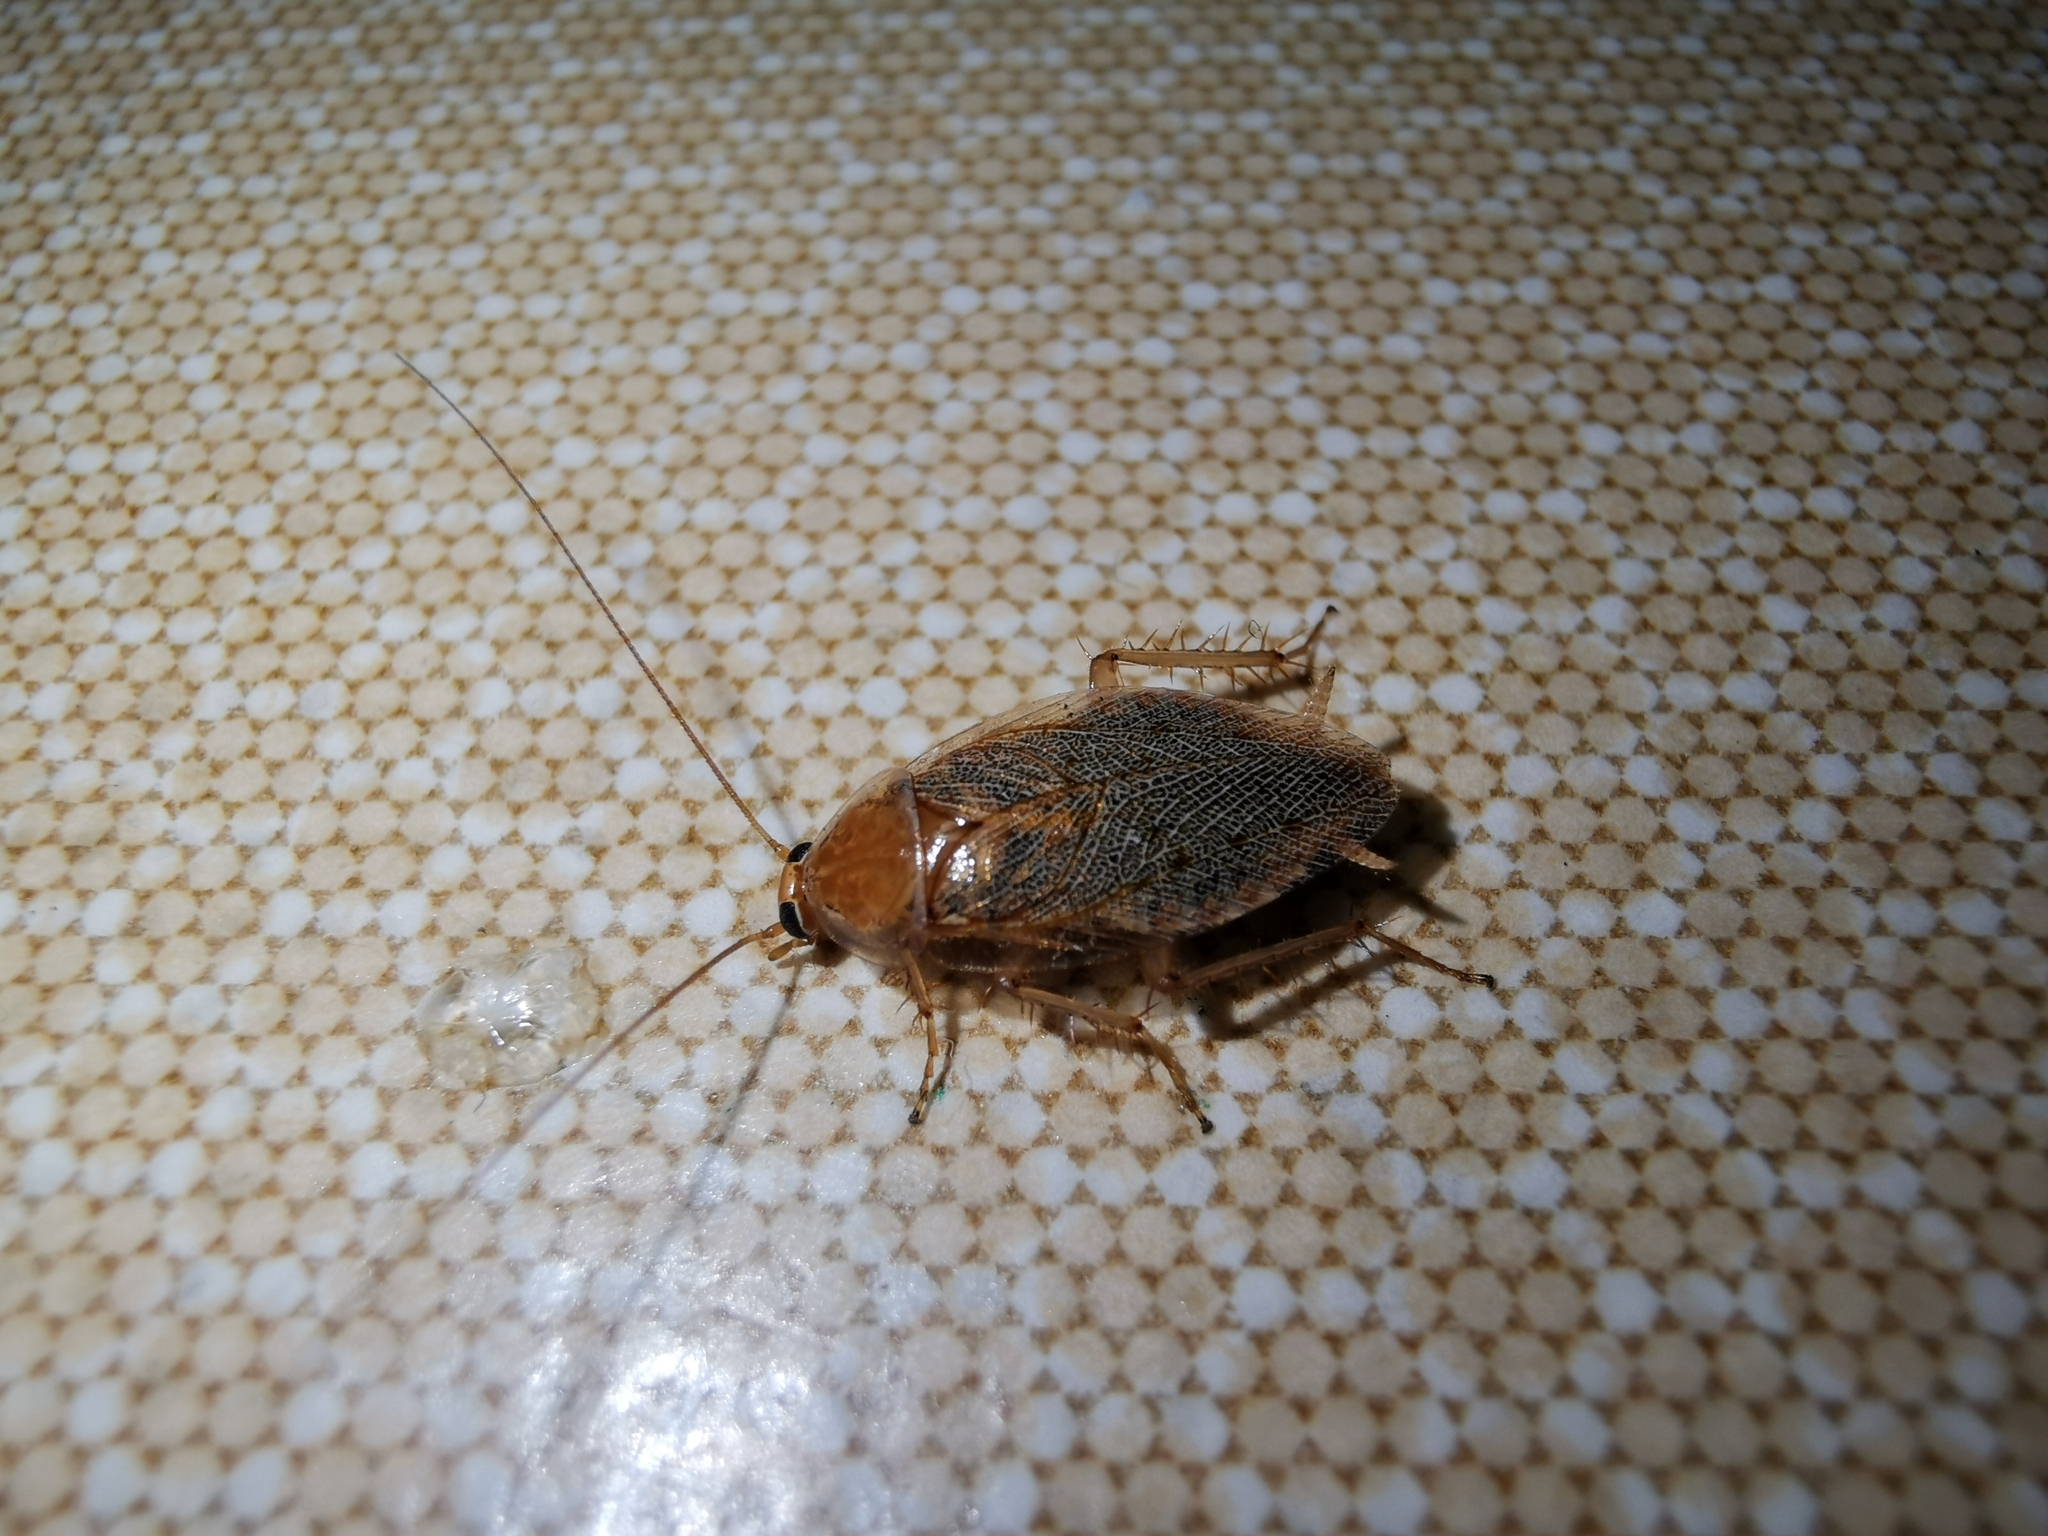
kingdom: Animalia
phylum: Arthropoda
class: Insecta
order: Blattodea
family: Ectobiidae
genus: Ectobius
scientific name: Ectobius vittiventris
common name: Garden cockroach
